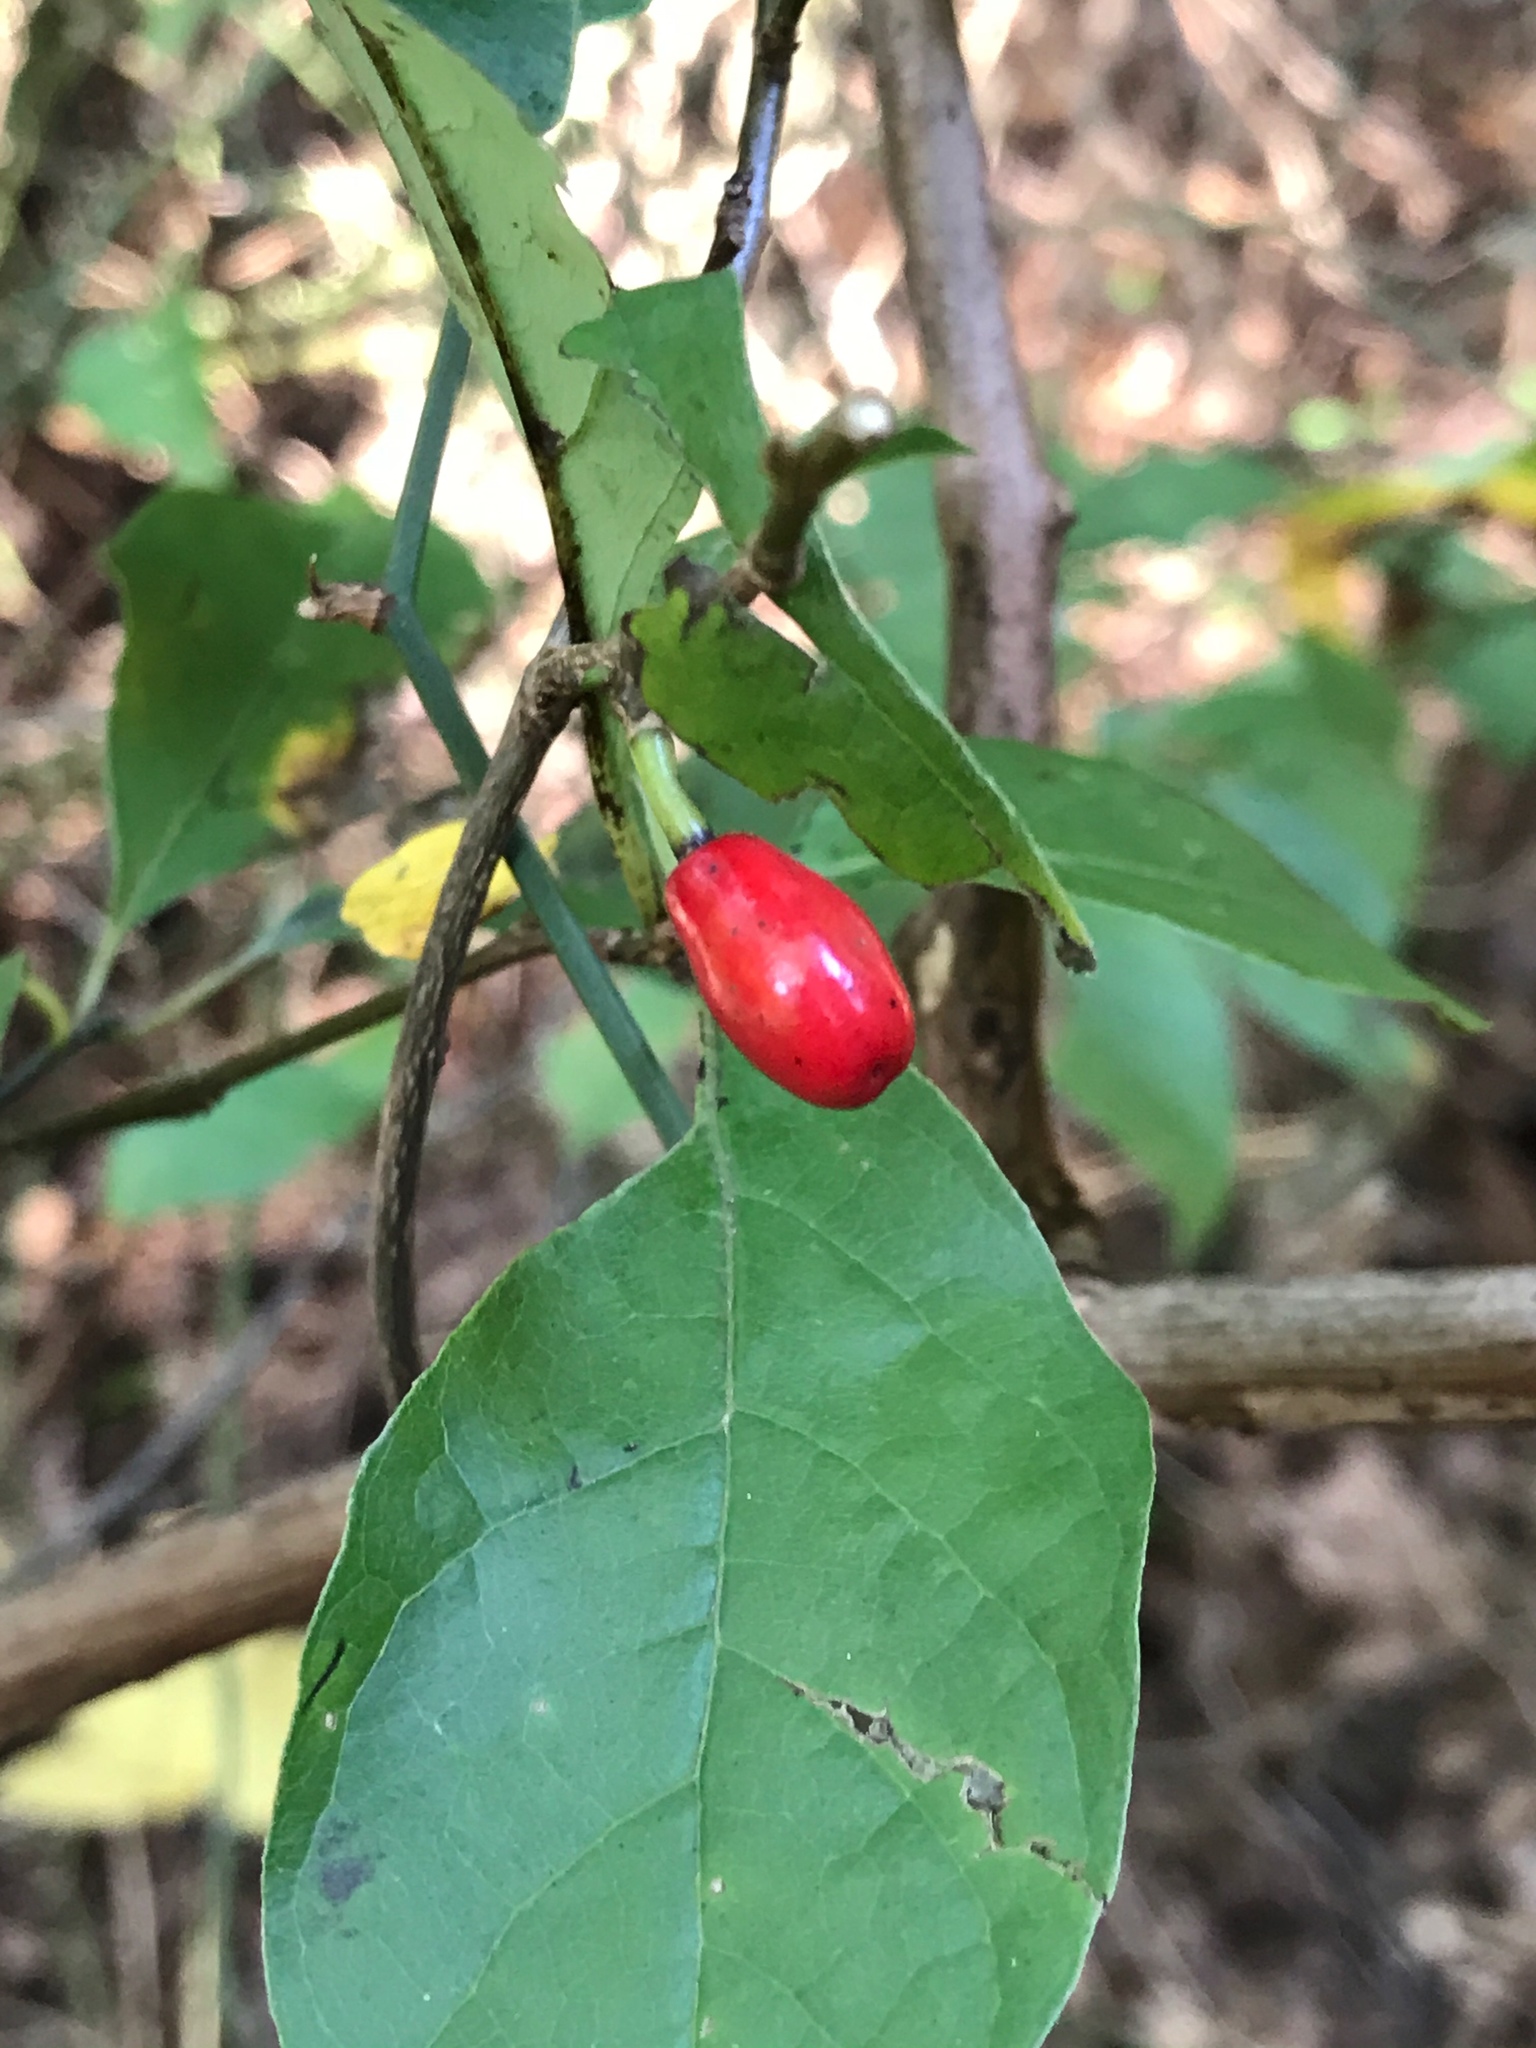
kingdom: Plantae
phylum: Tracheophyta
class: Magnoliopsida
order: Laurales
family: Lauraceae
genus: Lindera
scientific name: Lindera benzoin
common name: Spicebush
